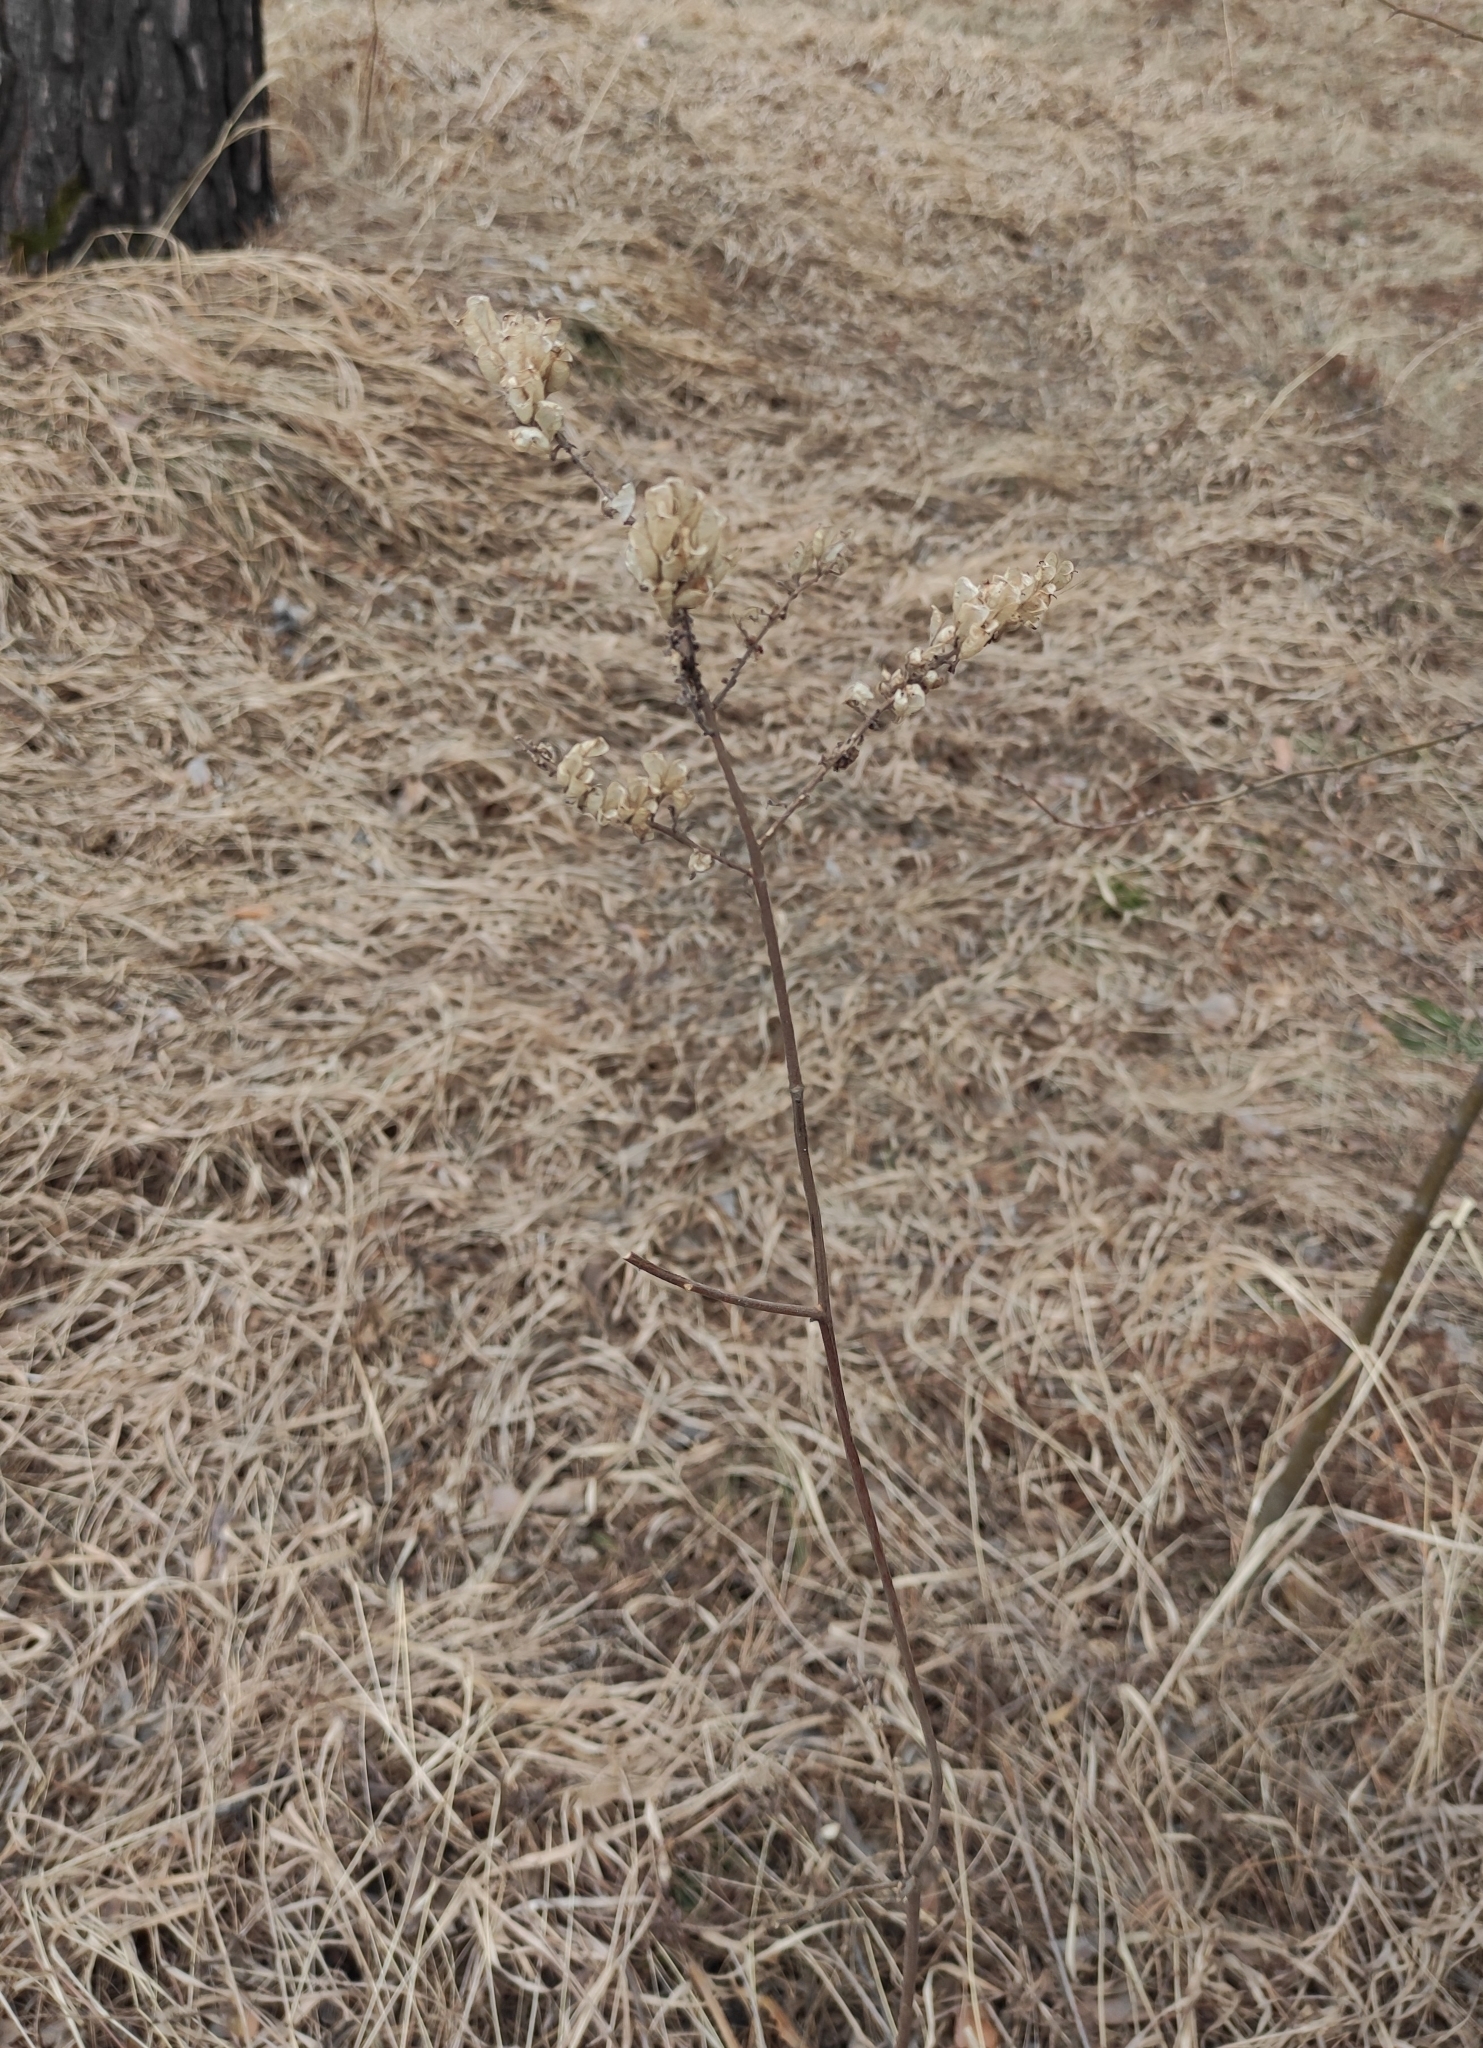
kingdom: Plantae
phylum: Tracheophyta
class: Magnoliopsida
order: Ranunculales
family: Ranunculaceae
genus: Actaea
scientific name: Actaea cimicifuga
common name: Chinese cimicifuga
